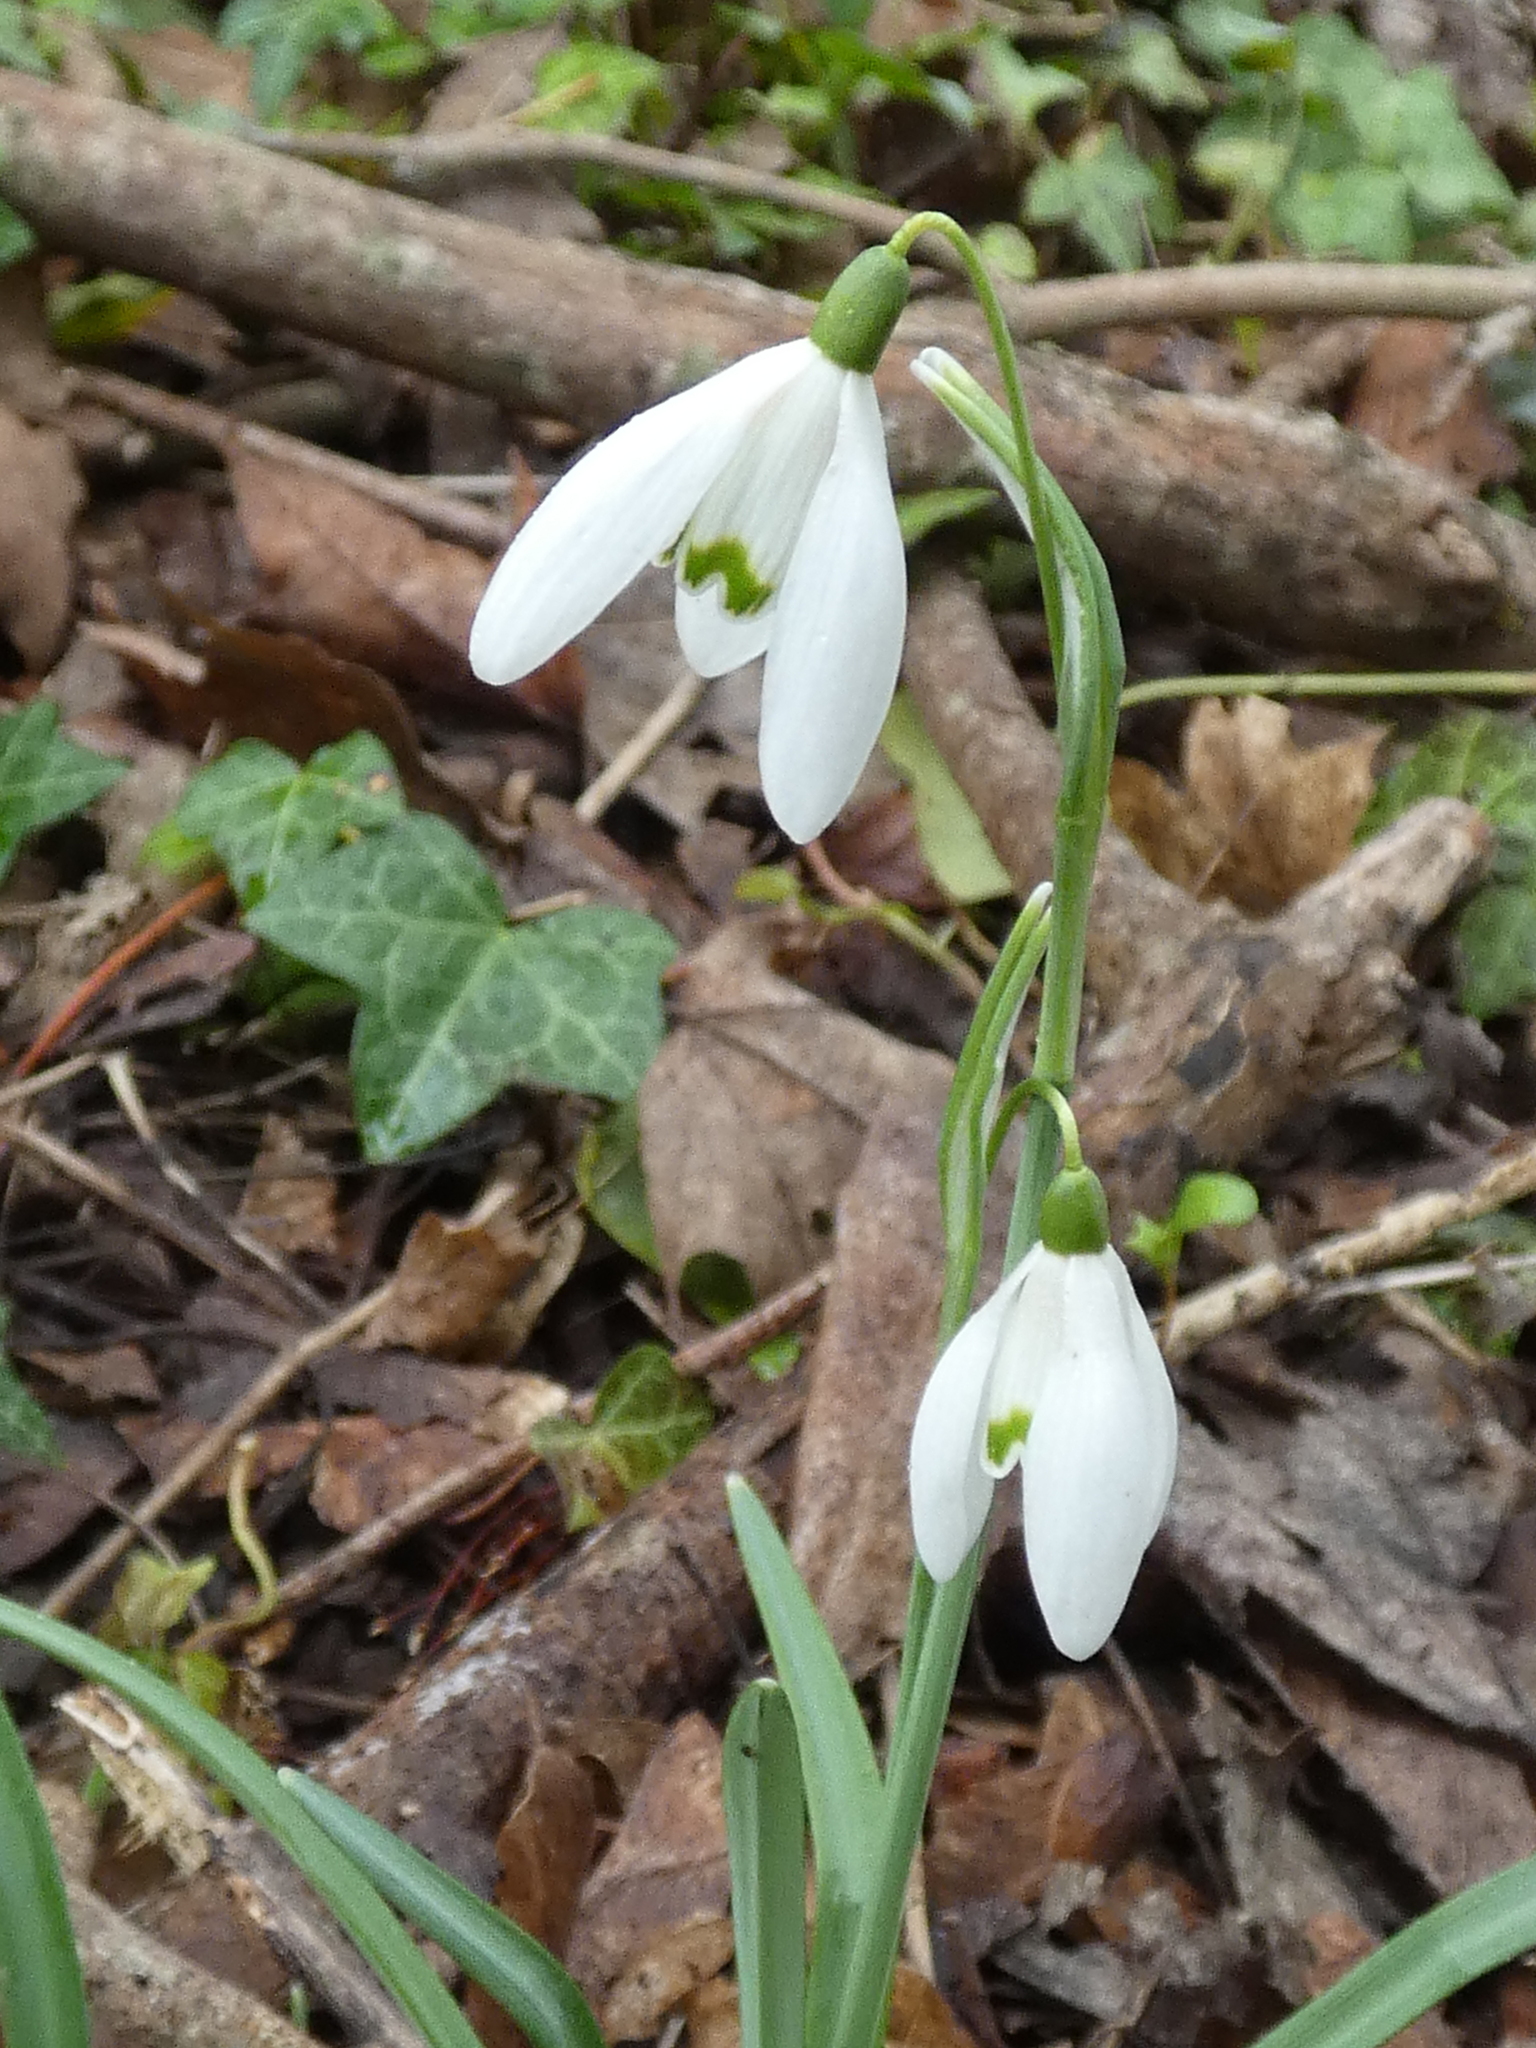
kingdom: Plantae
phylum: Tracheophyta
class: Liliopsida
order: Asparagales
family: Amaryllidaceae
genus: Galanthus
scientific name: Galanthus nivalis
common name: Snowdrop
